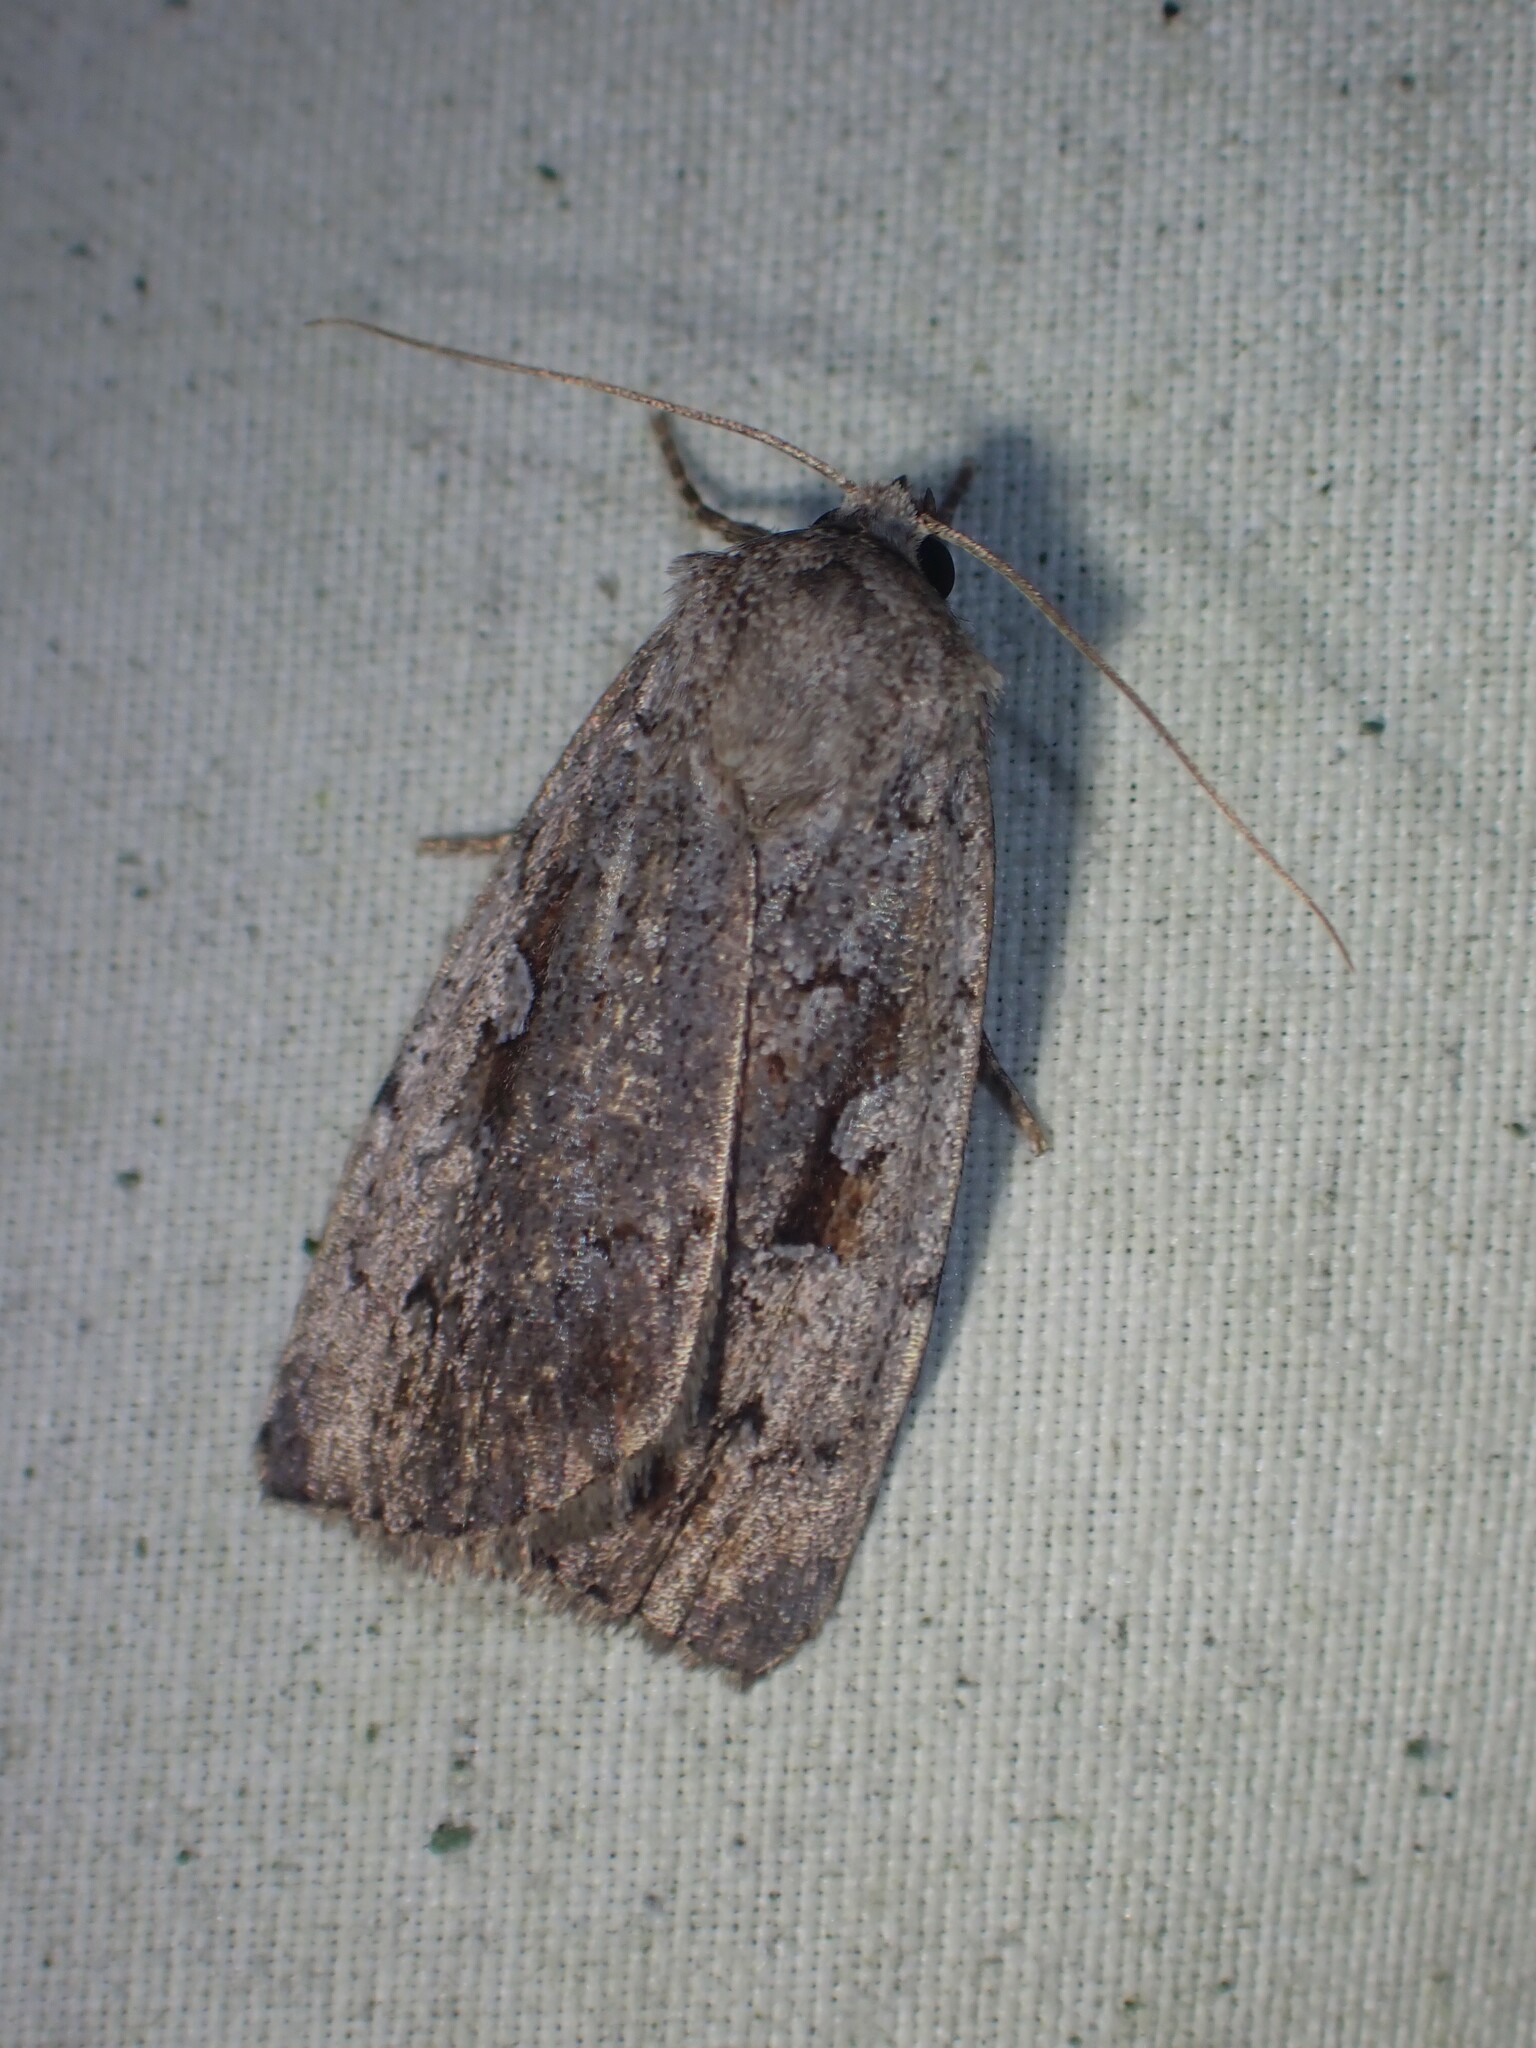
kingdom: Animalia
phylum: Arthropoda
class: Insecta
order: Lepidoptera
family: Noctuidae
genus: Coenophila
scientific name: Coenophila opacifrons
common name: Blueberry dart
